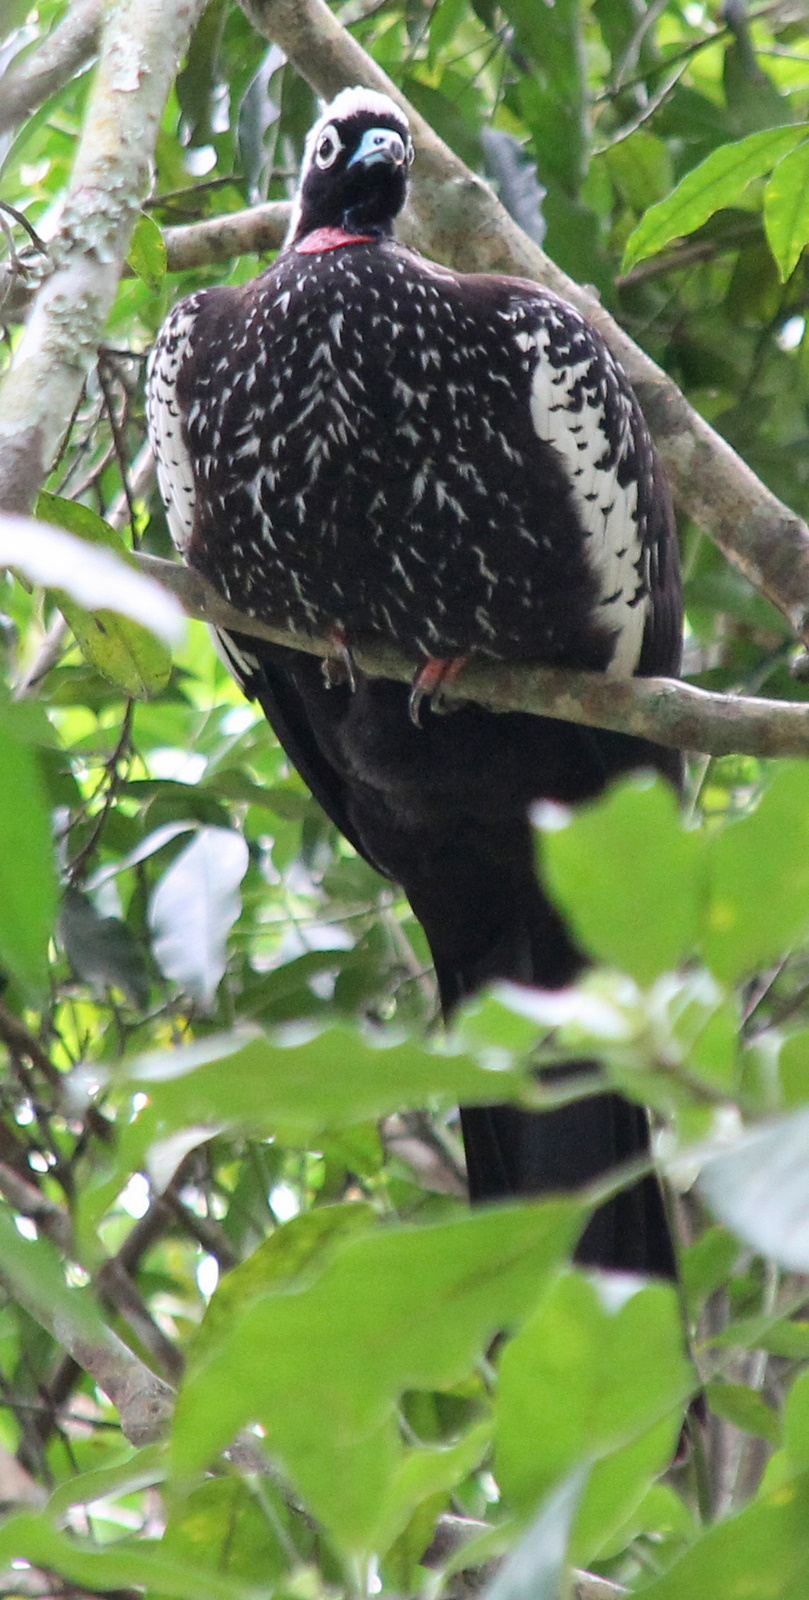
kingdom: Animalia
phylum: Chordata
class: Aves
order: Galliformes
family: Cracidae
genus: Pipile
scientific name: Pipile jacutinga
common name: Black-fronted piping-guan
